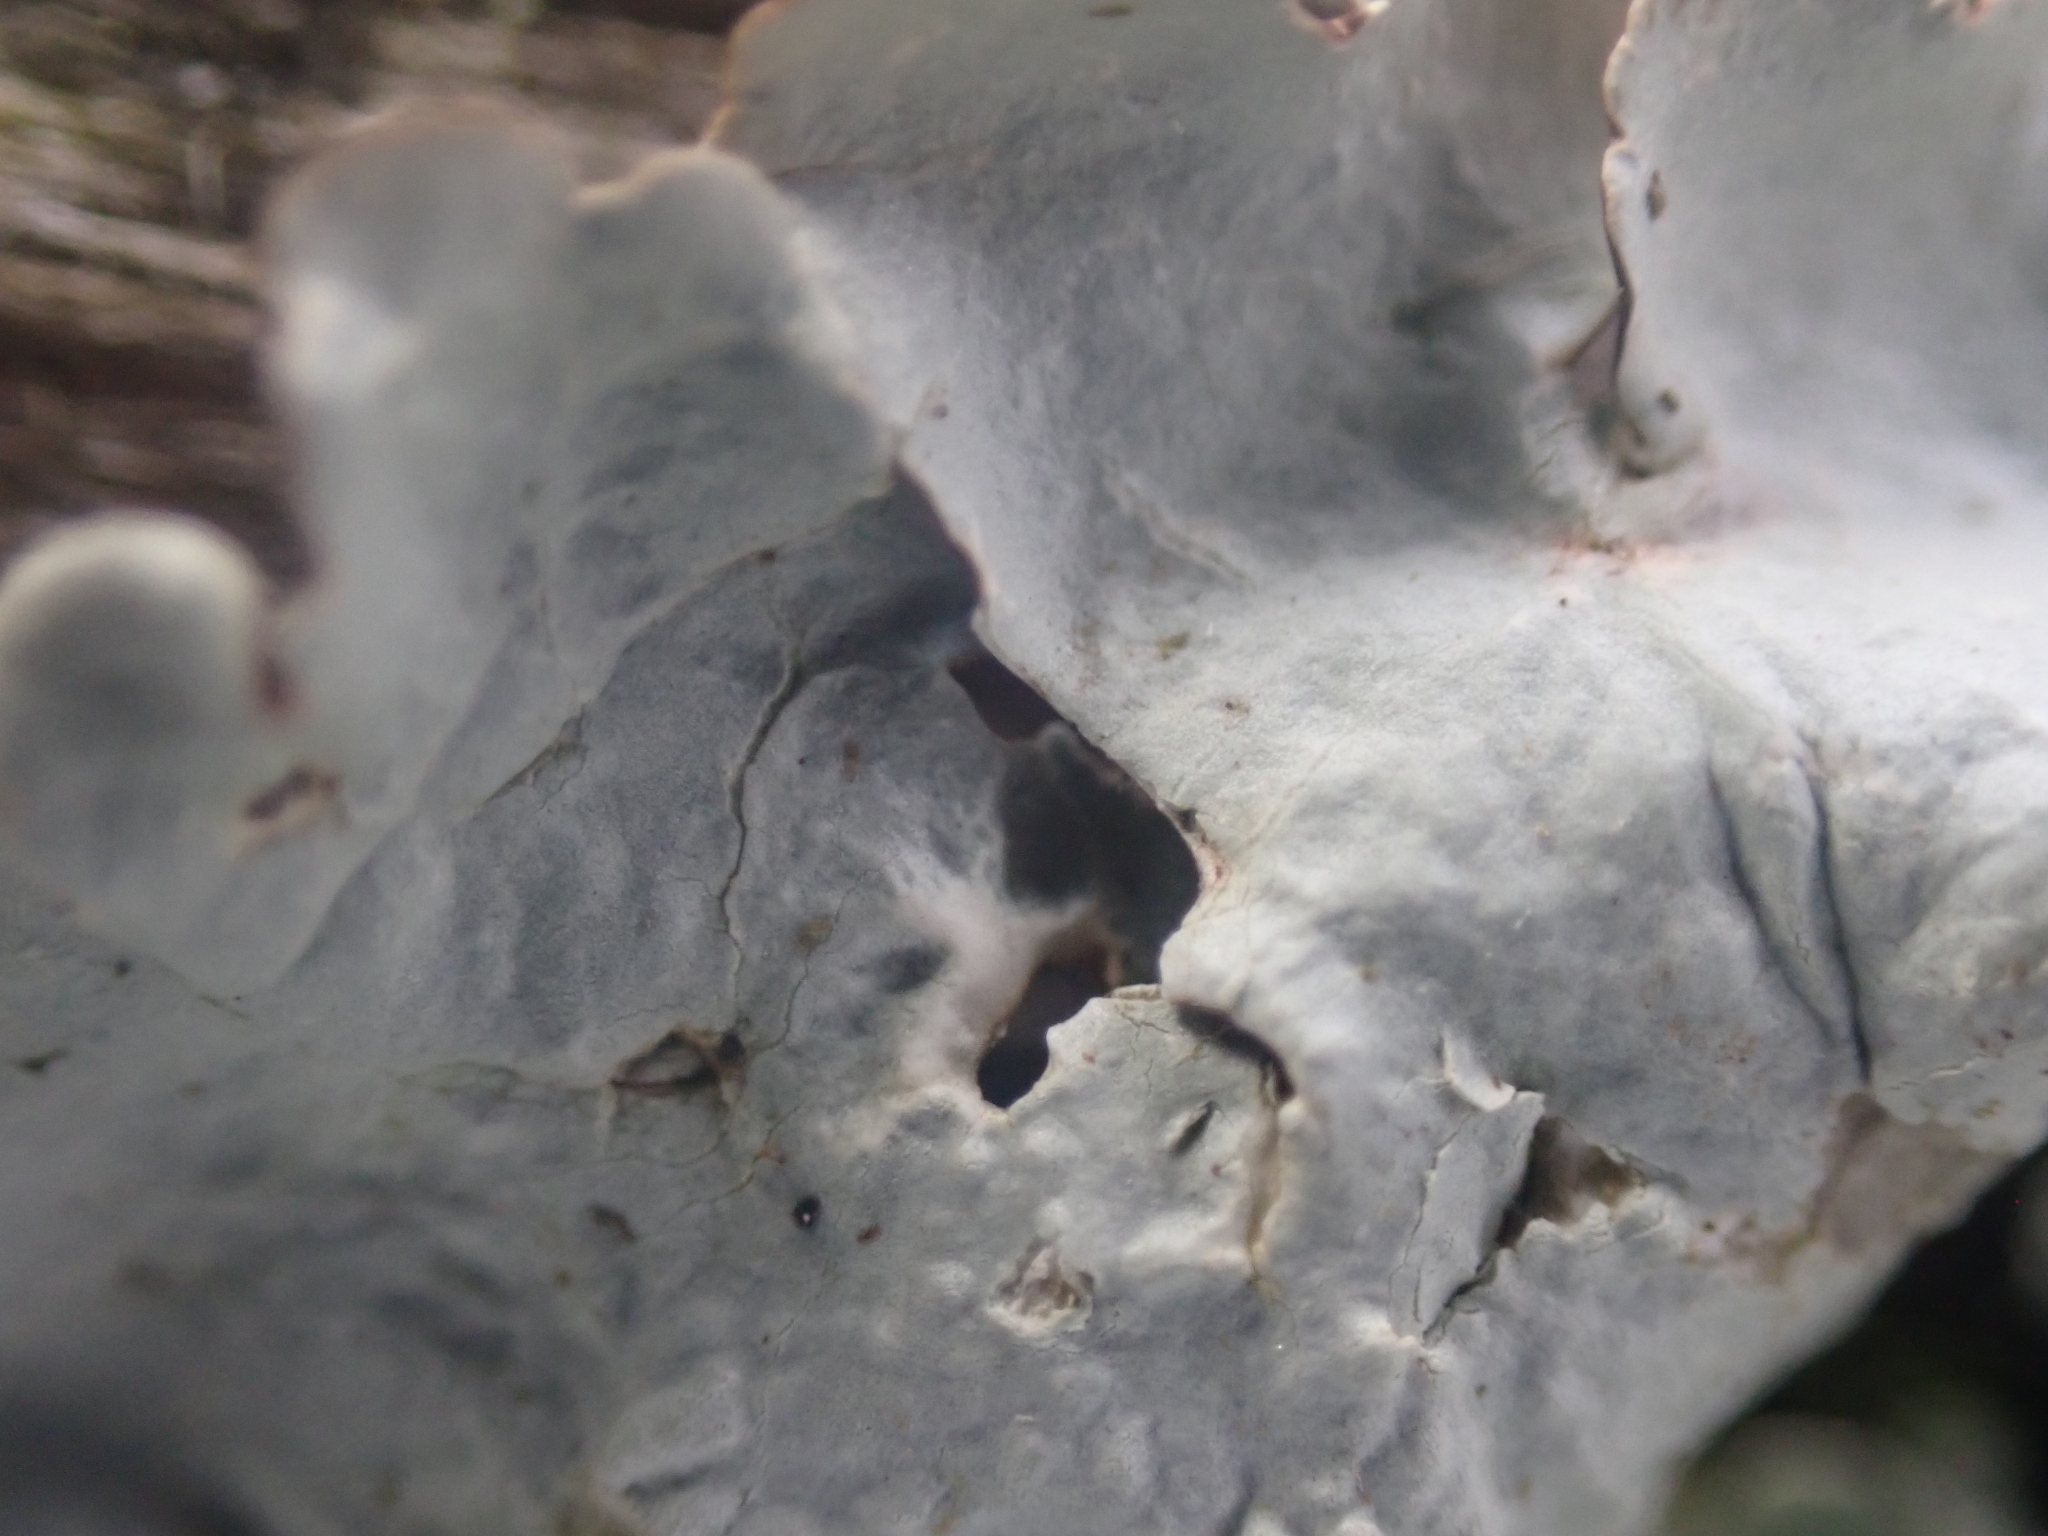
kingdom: Fungi
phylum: Ascomycota
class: Lecanoromycetes
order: Lecanorales
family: Parmeliaceae
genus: Flavoparmelia
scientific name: Flavoparmelia caperata
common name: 40-mile per hour lichen
